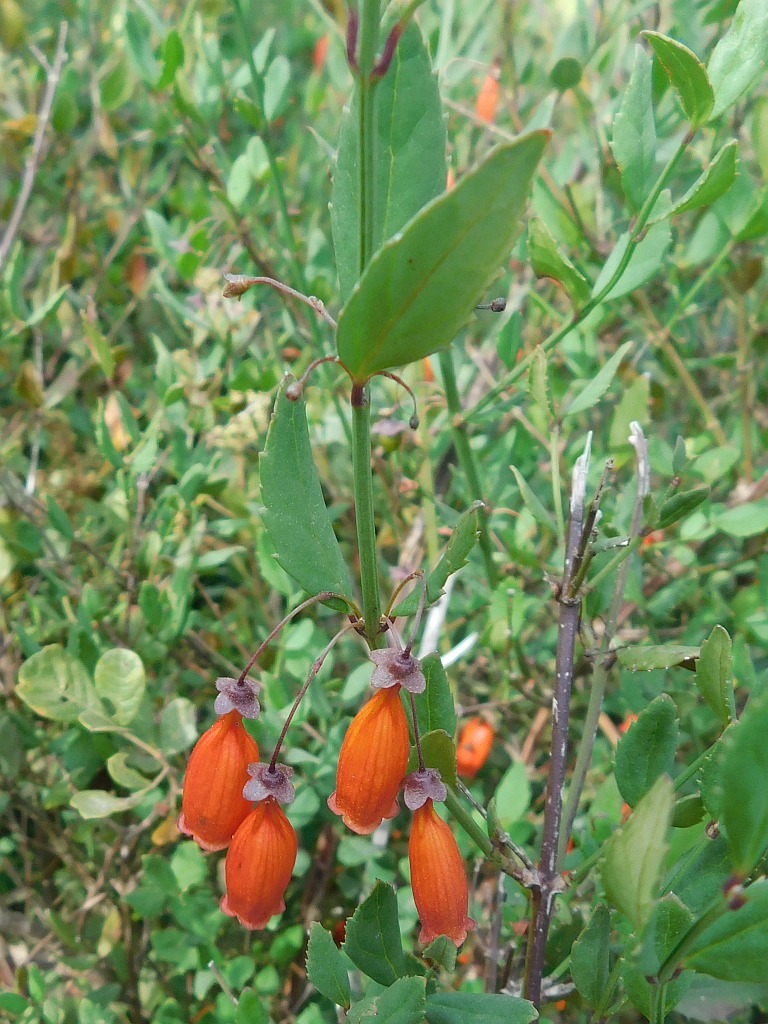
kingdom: Plantae
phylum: Tracheophyta
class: Magnoliopsida
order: Lamiales
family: Stilbaceae
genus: Halleria
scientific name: Halleria elliptica
